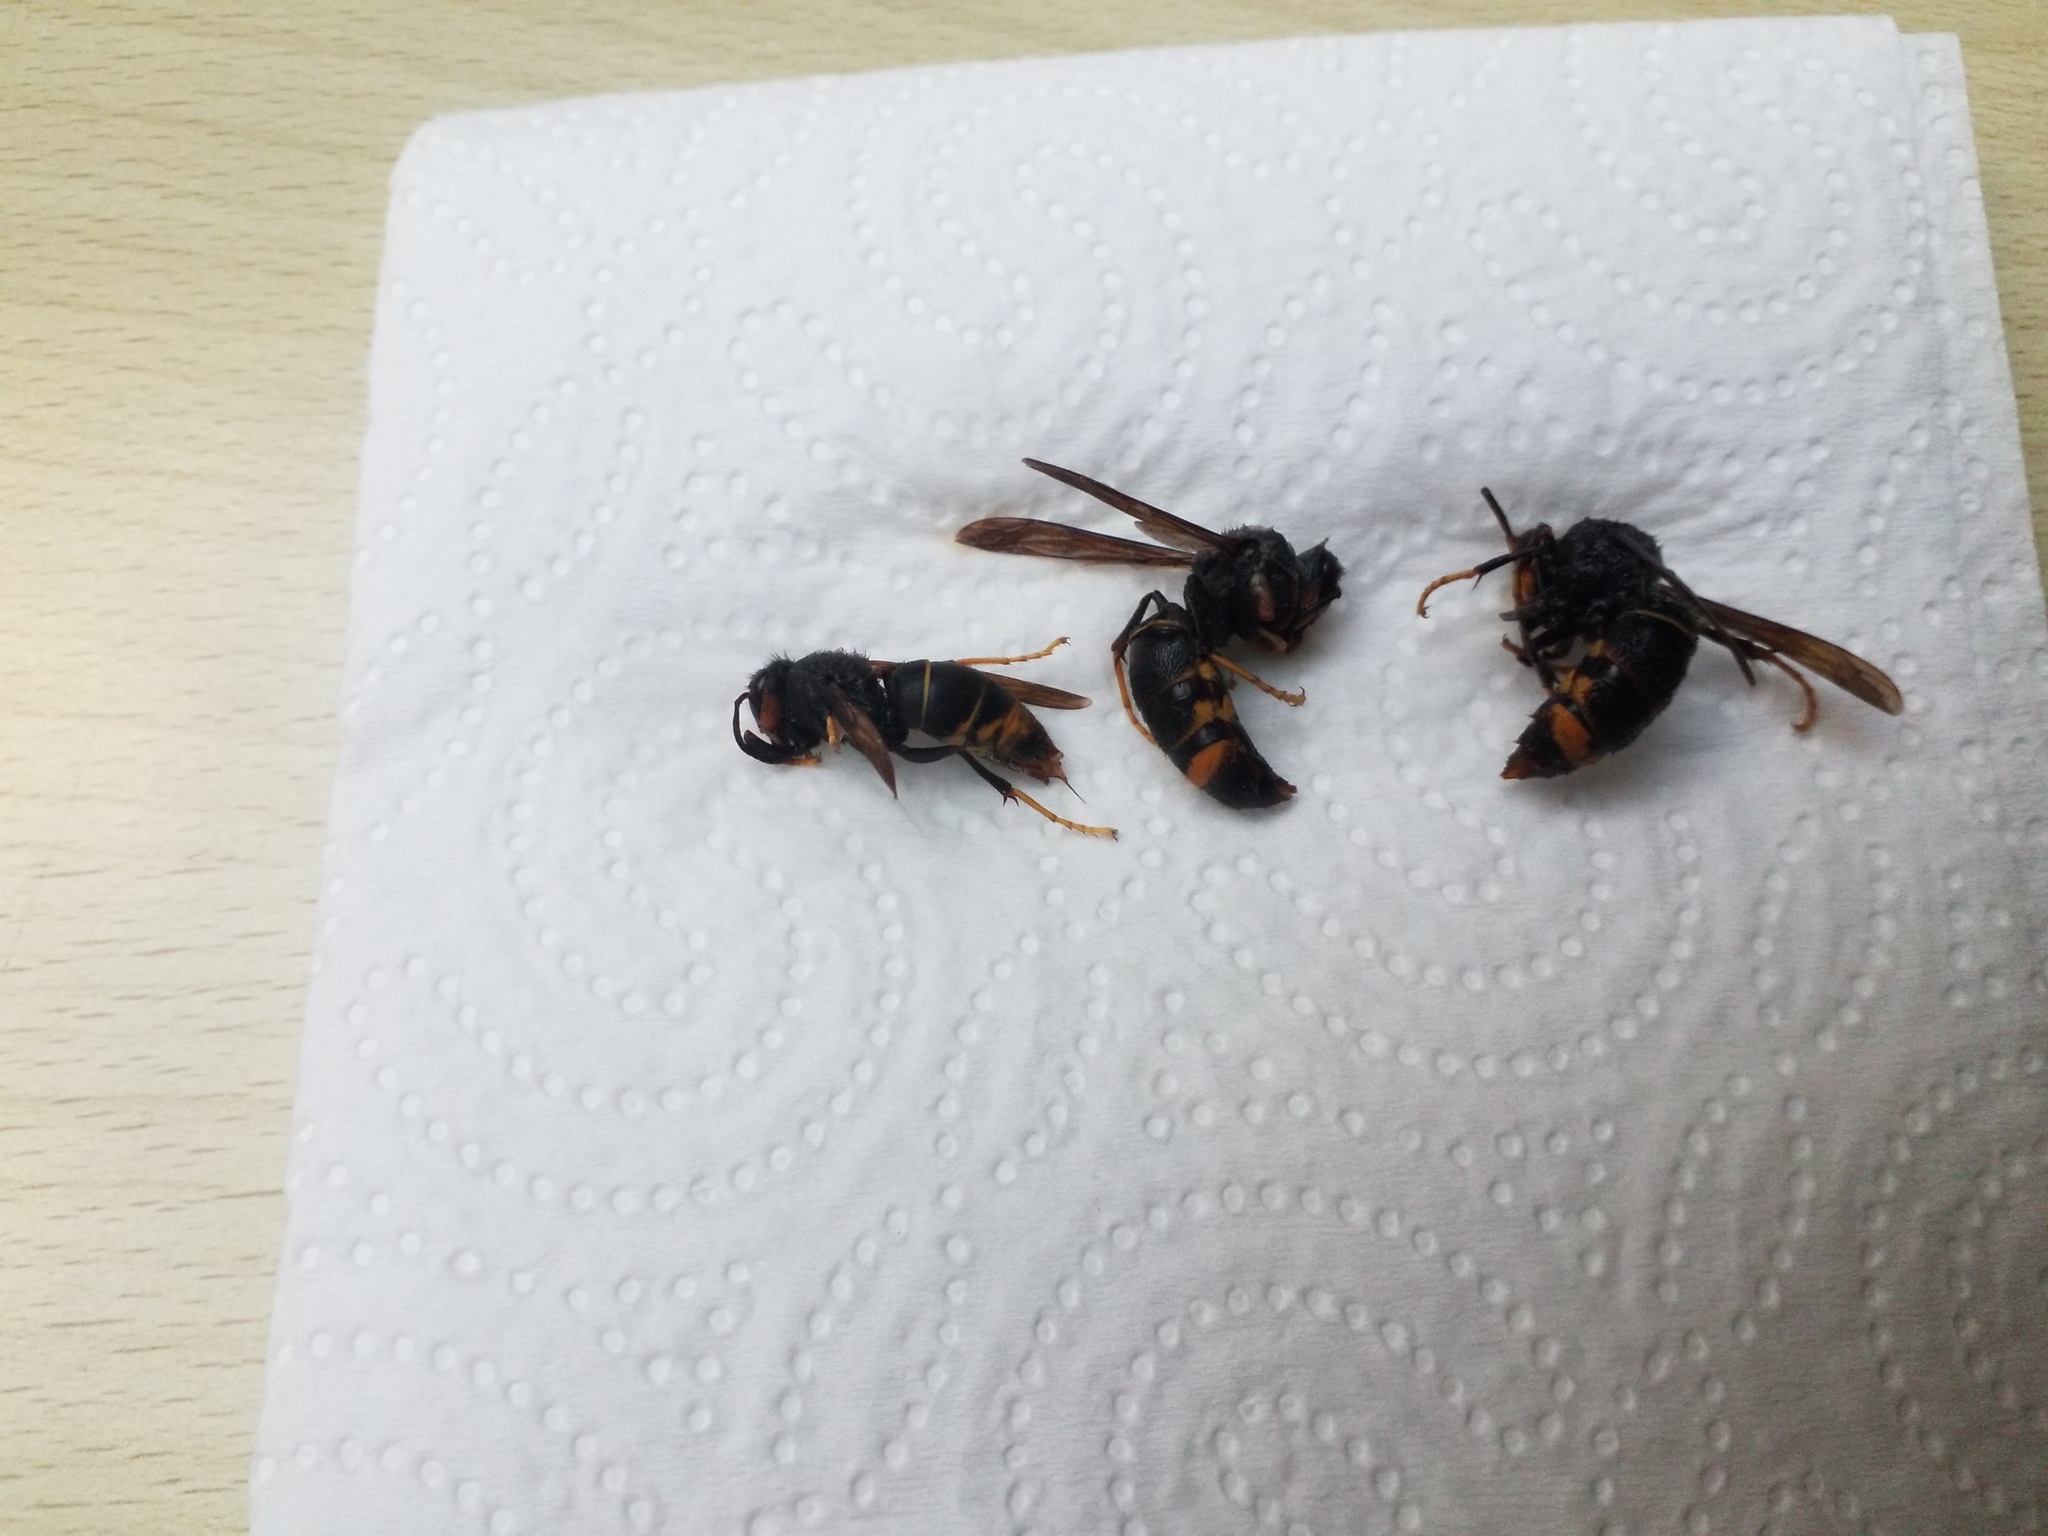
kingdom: Animalia
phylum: Arthropoda
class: Insecta
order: Hymenoptera
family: Vespidae
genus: Vespa
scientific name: Vespa velutina
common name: Asian hornet
